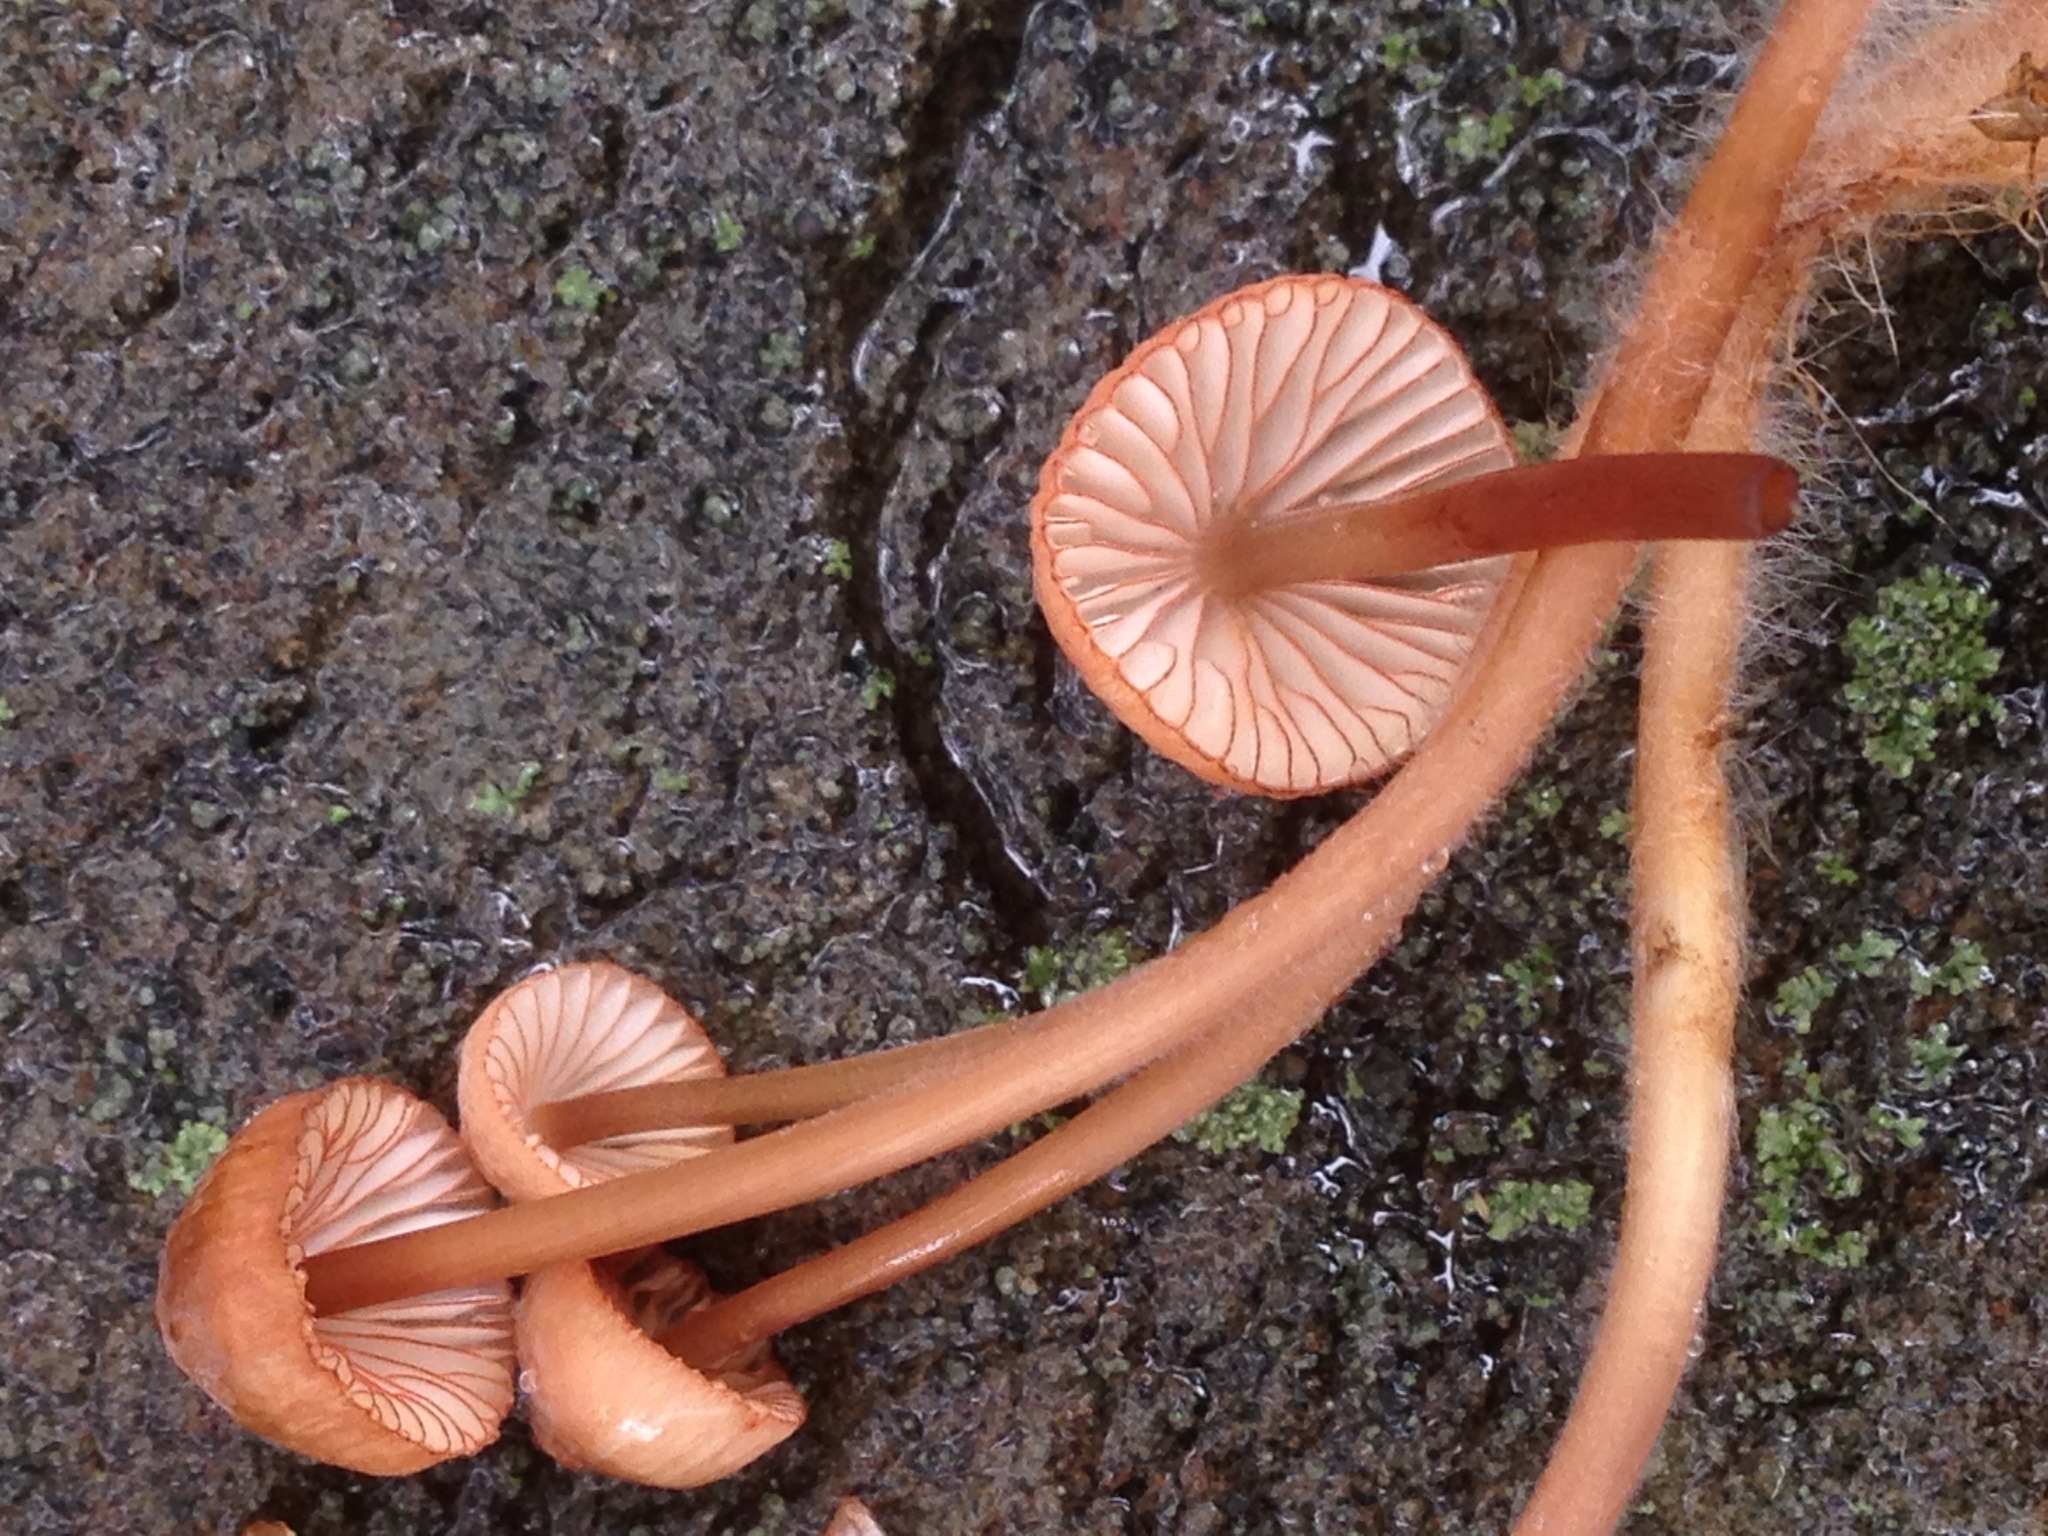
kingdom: Fungi
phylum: Basidiomycota
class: Agaricomycetes
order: Agaricales
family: Mycenaceae
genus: Mycena
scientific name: Mycena
